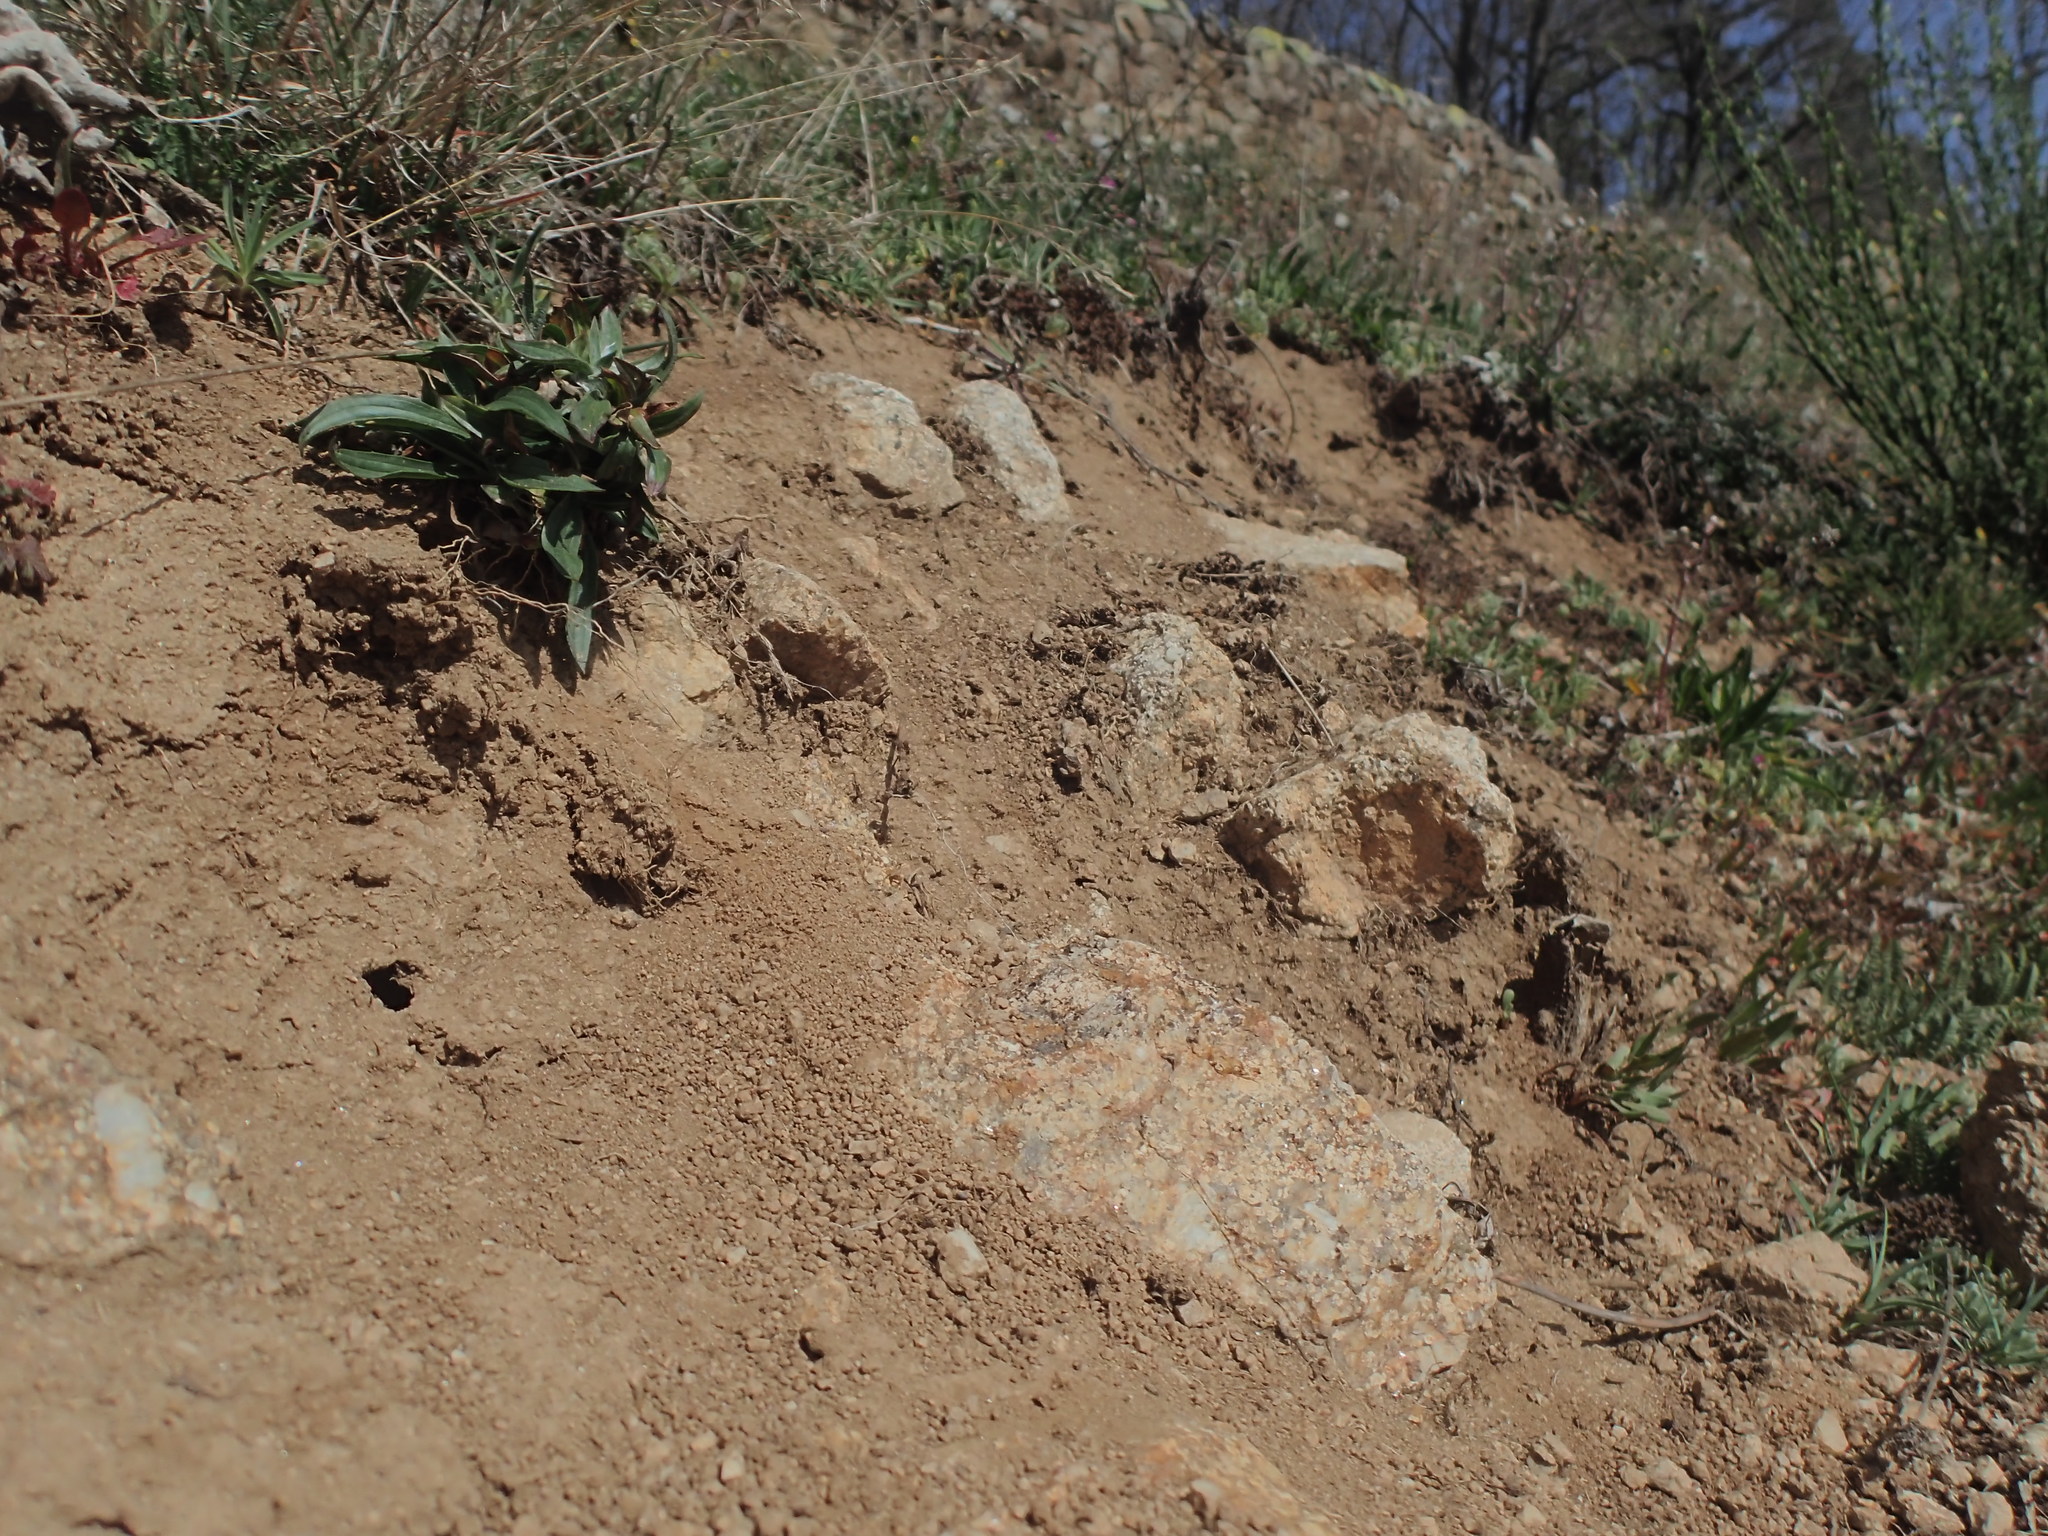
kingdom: Animalia
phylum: Arthropoda
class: Insecta
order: Hymenoptera
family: Sphecidae
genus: Podalonia
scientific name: Podalonia hirsuta
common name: Hairy sand wasp
